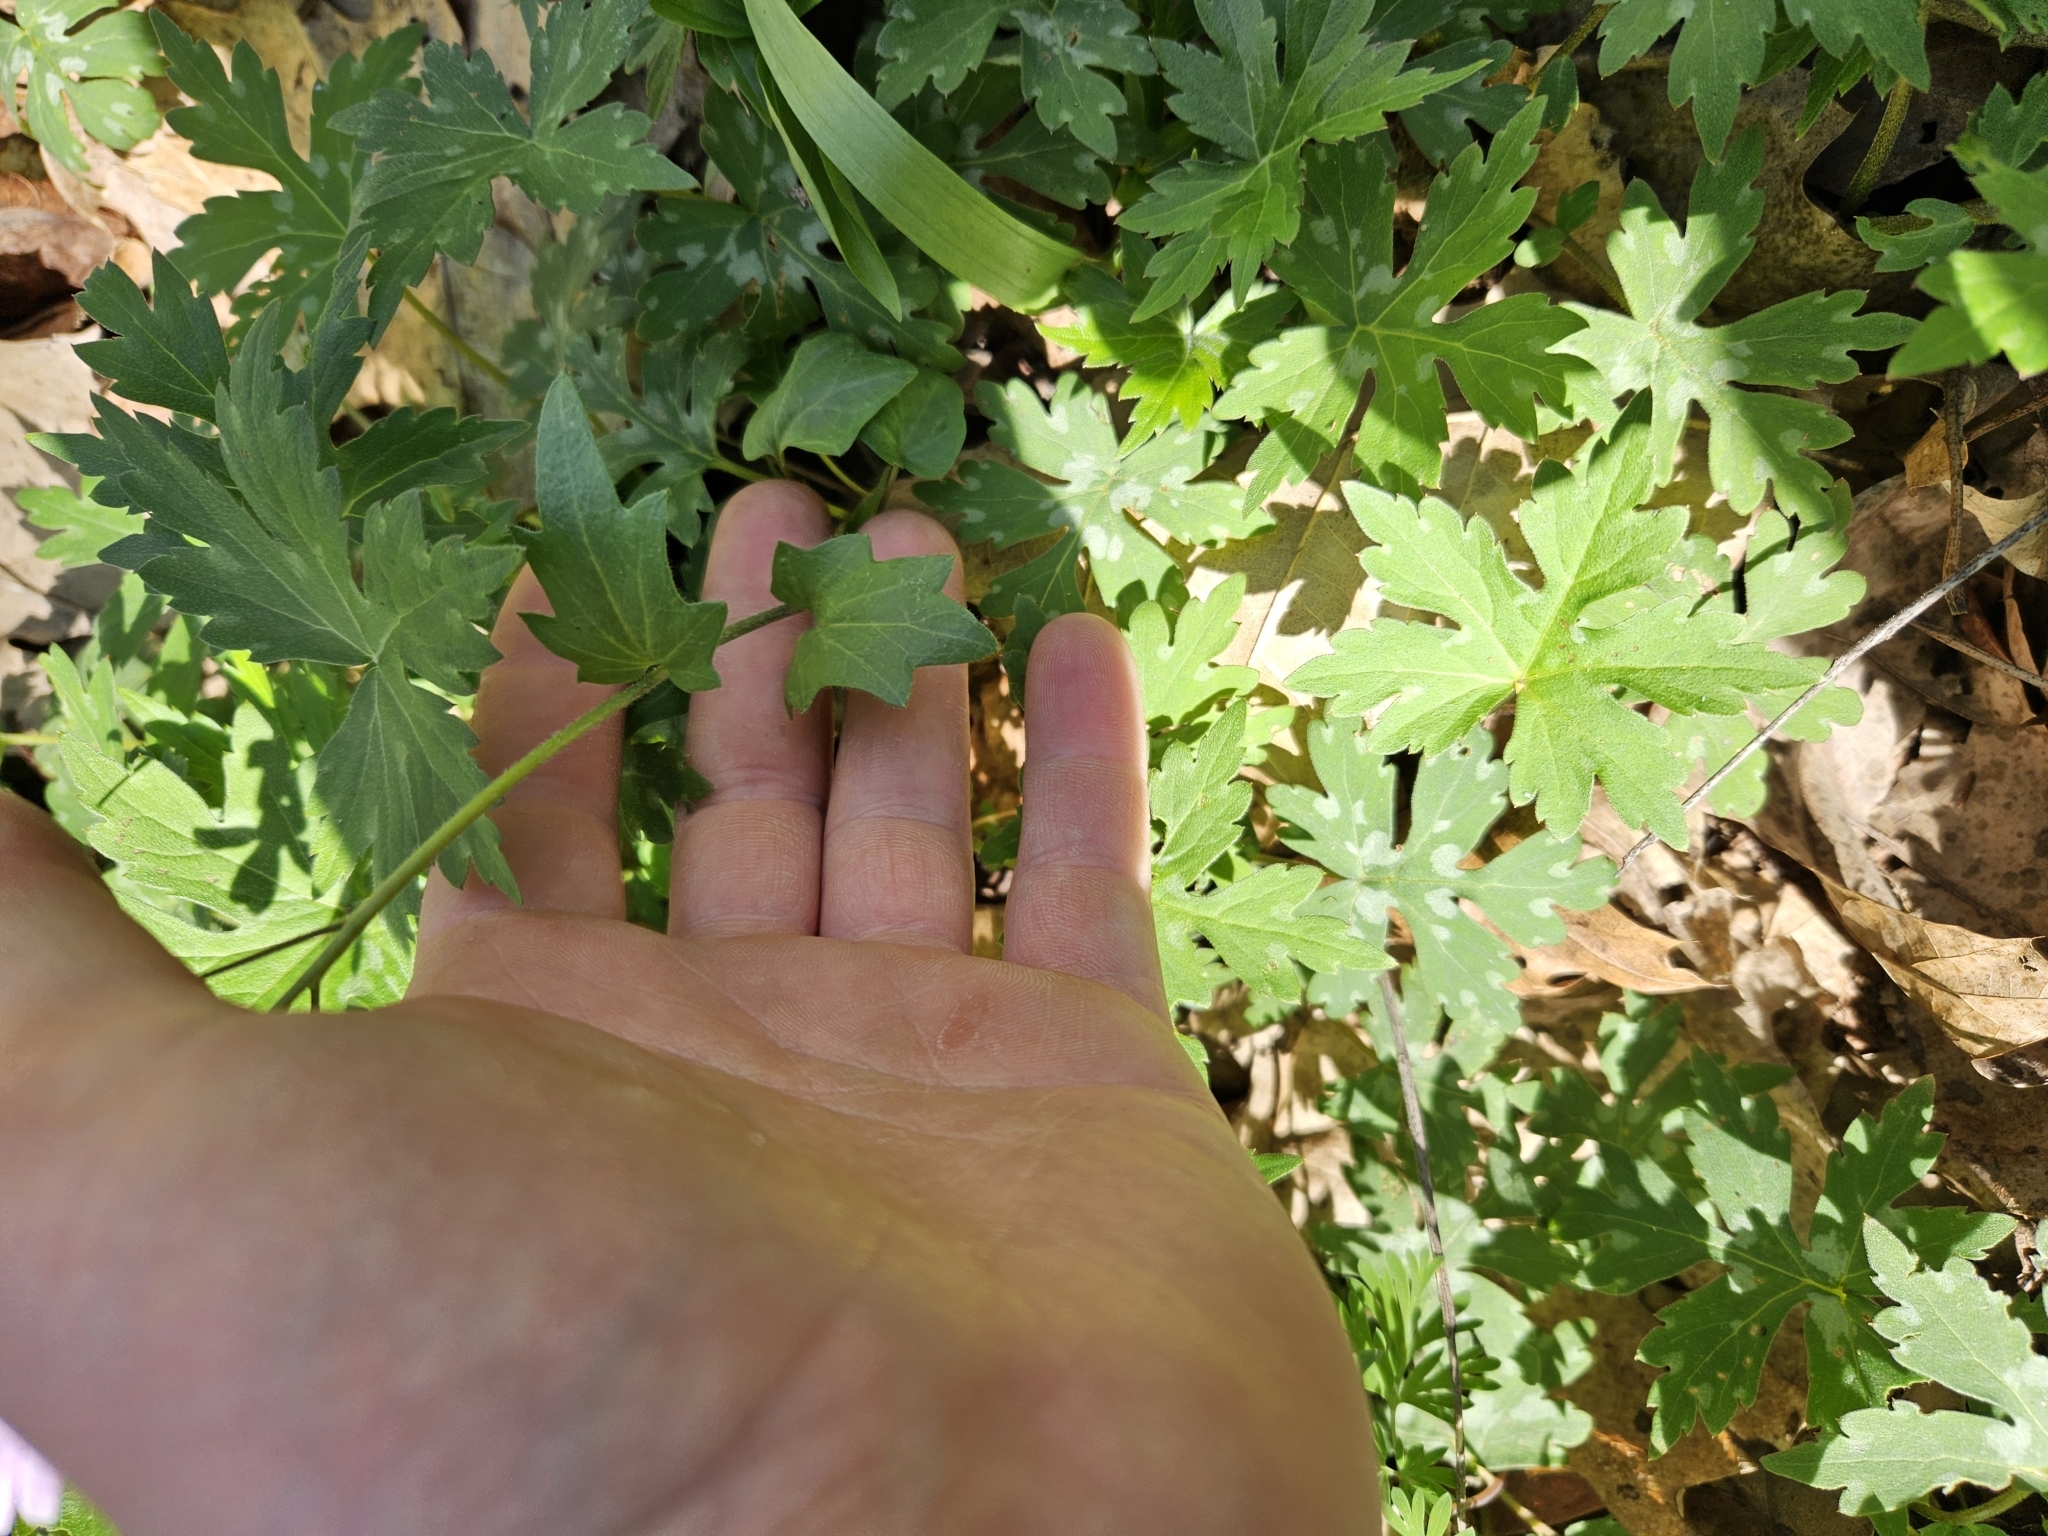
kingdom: Plantae
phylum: Tracheophyta
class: Magnoliopsida
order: Brassicales
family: Brassicaceae
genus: Cardamine
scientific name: Cardamine douglassii
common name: Purple cress
